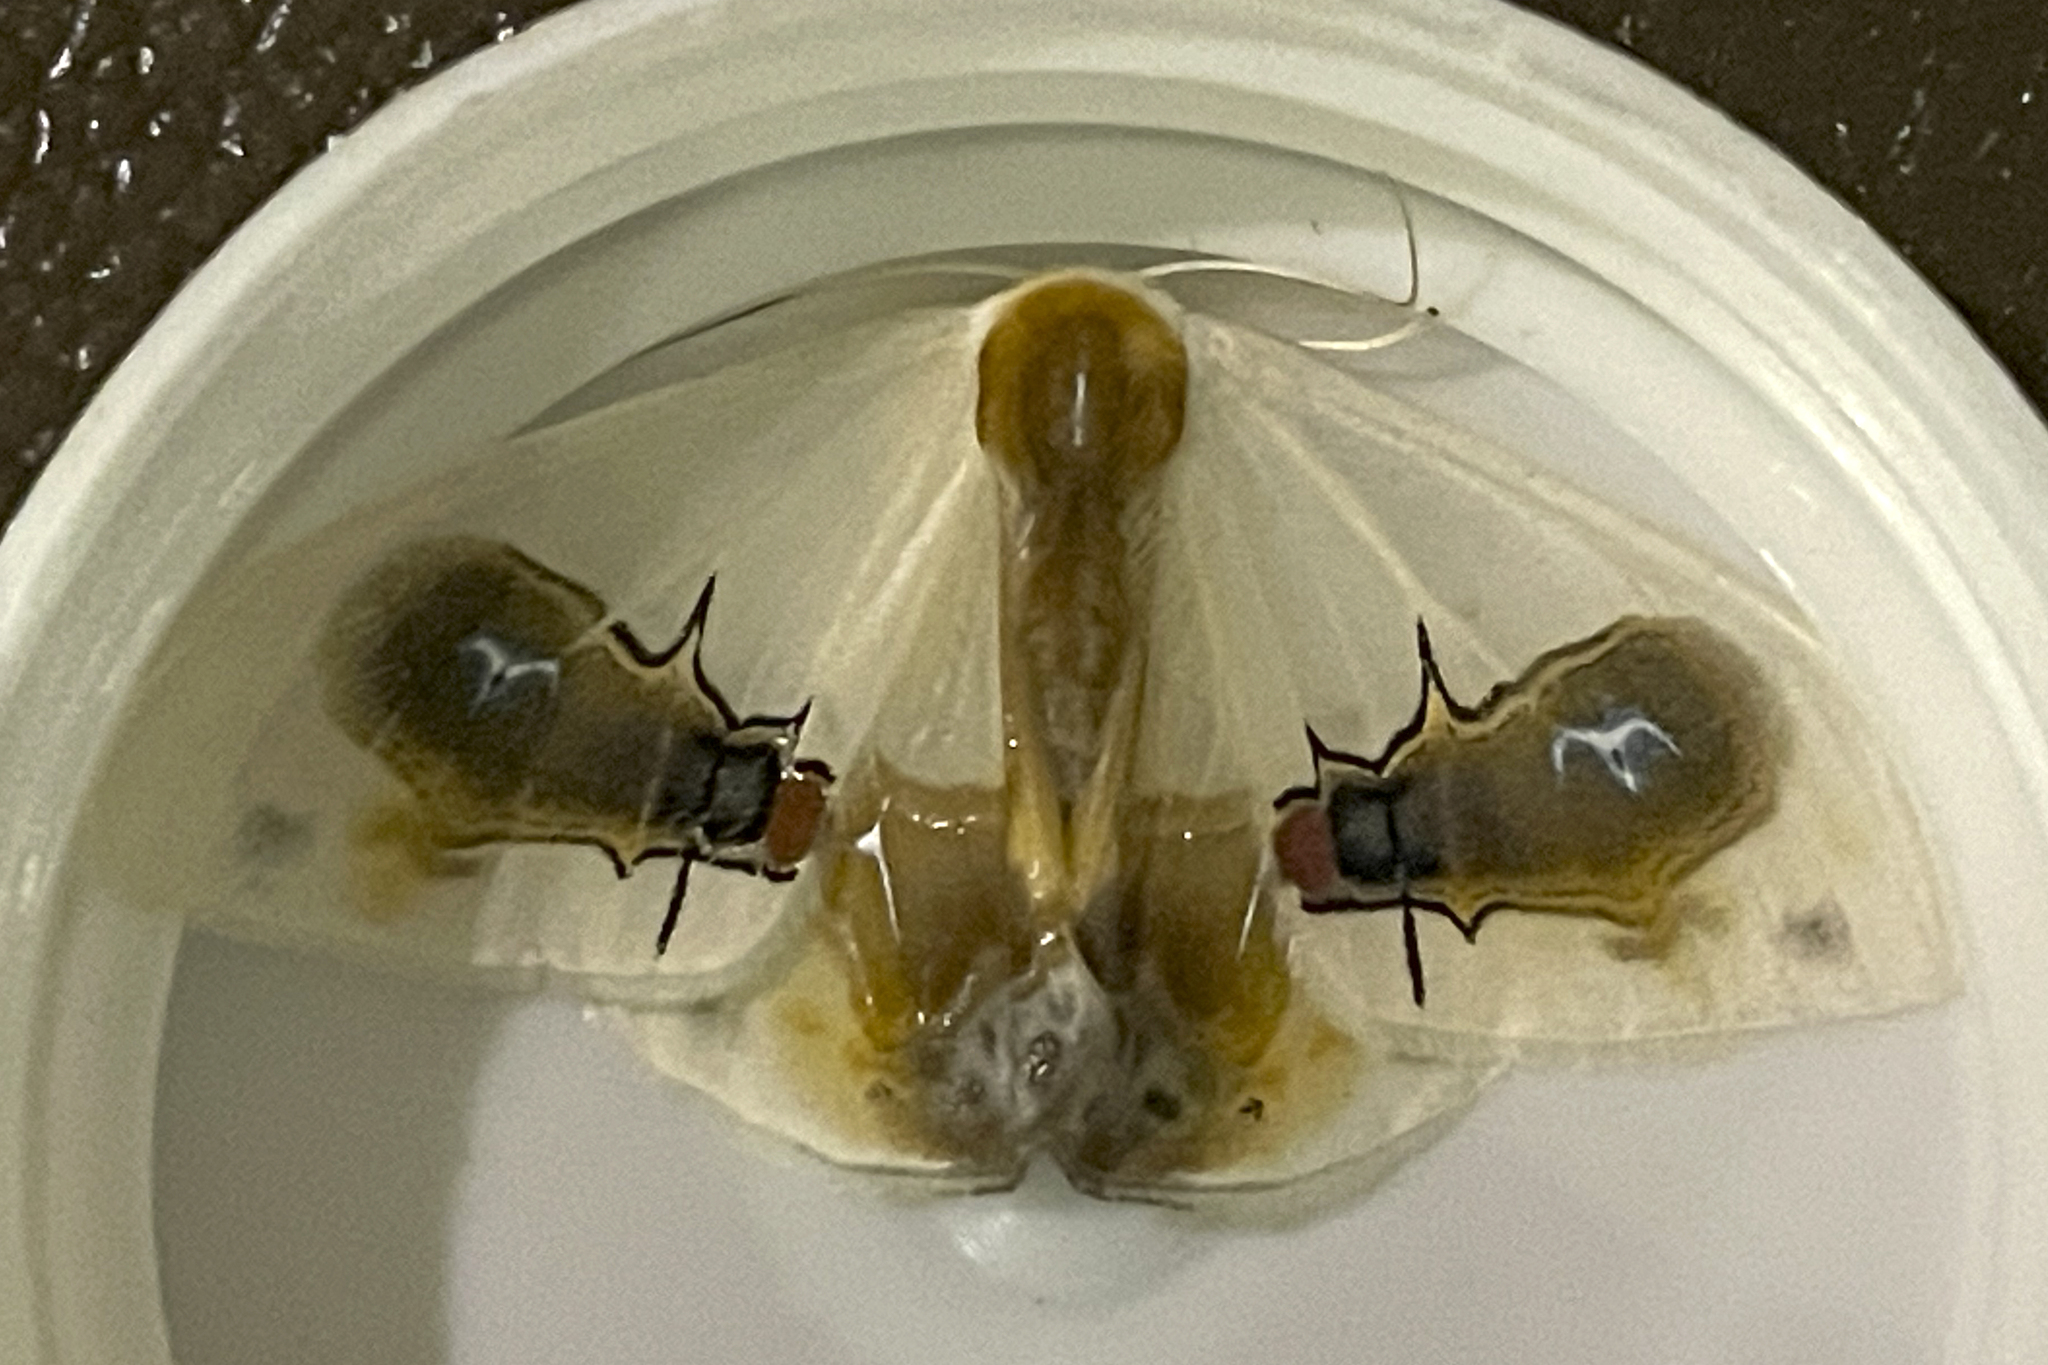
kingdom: Animalia
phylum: Arthropoda
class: Insecta
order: Lepidoptera
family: Drepanidae
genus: Macrocilix
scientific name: Macrocilix maia
